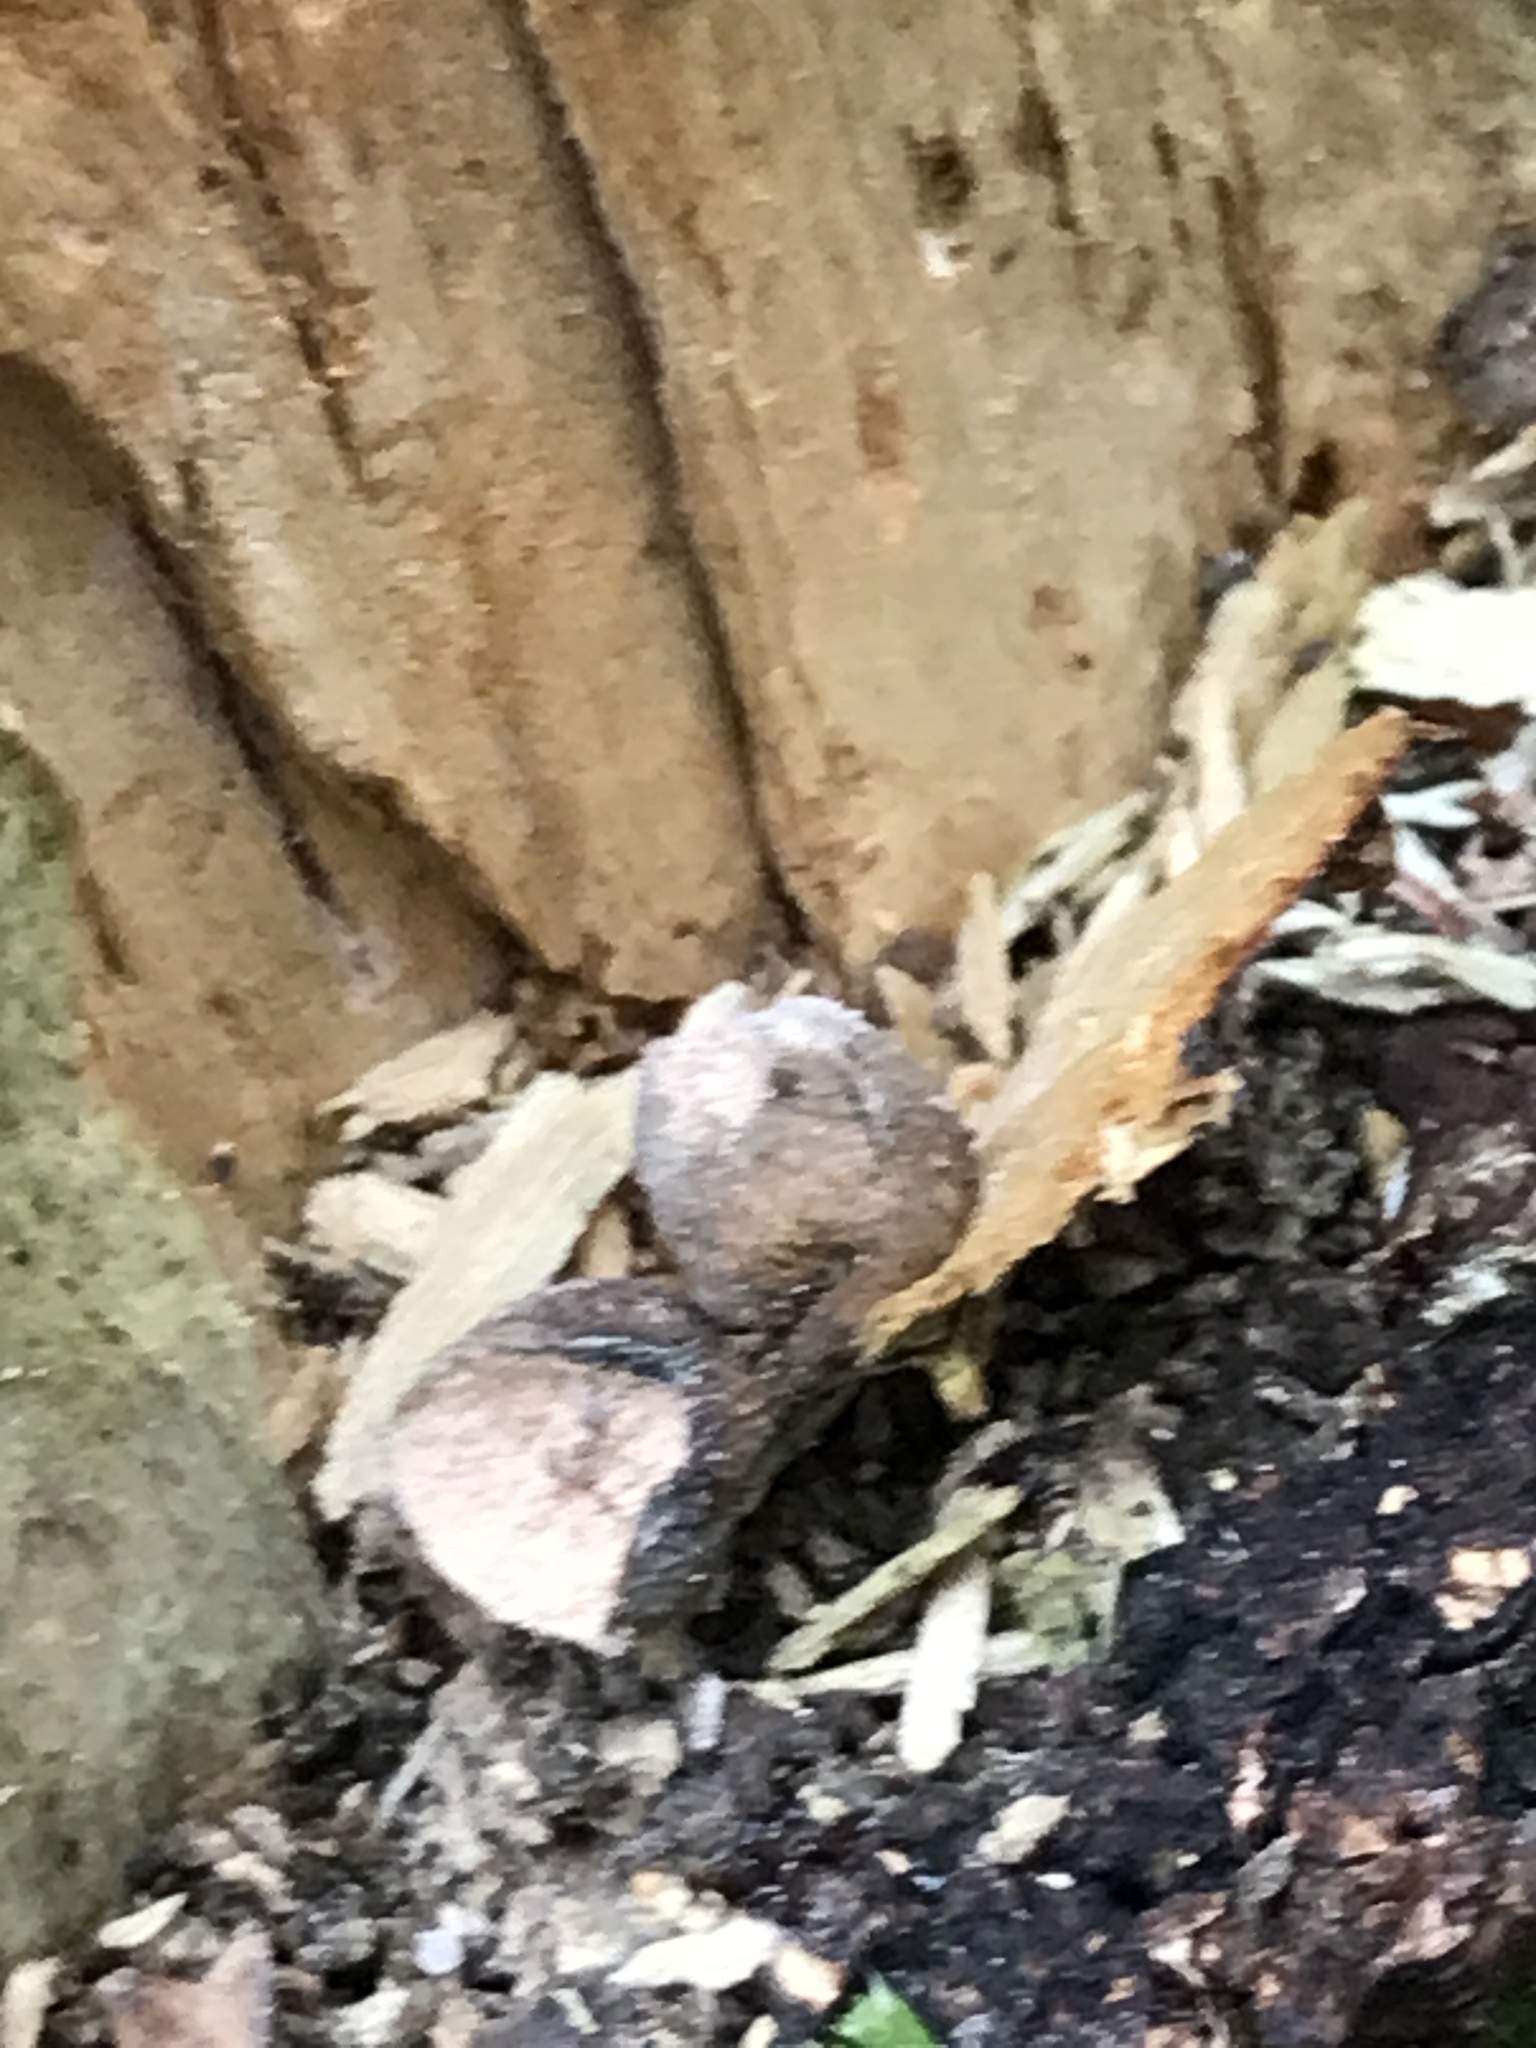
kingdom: Protozoa
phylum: Mycetozoa
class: Myxomycetes
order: Cribrariales
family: Tubiferaceae
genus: Lycogala
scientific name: Lycogala
